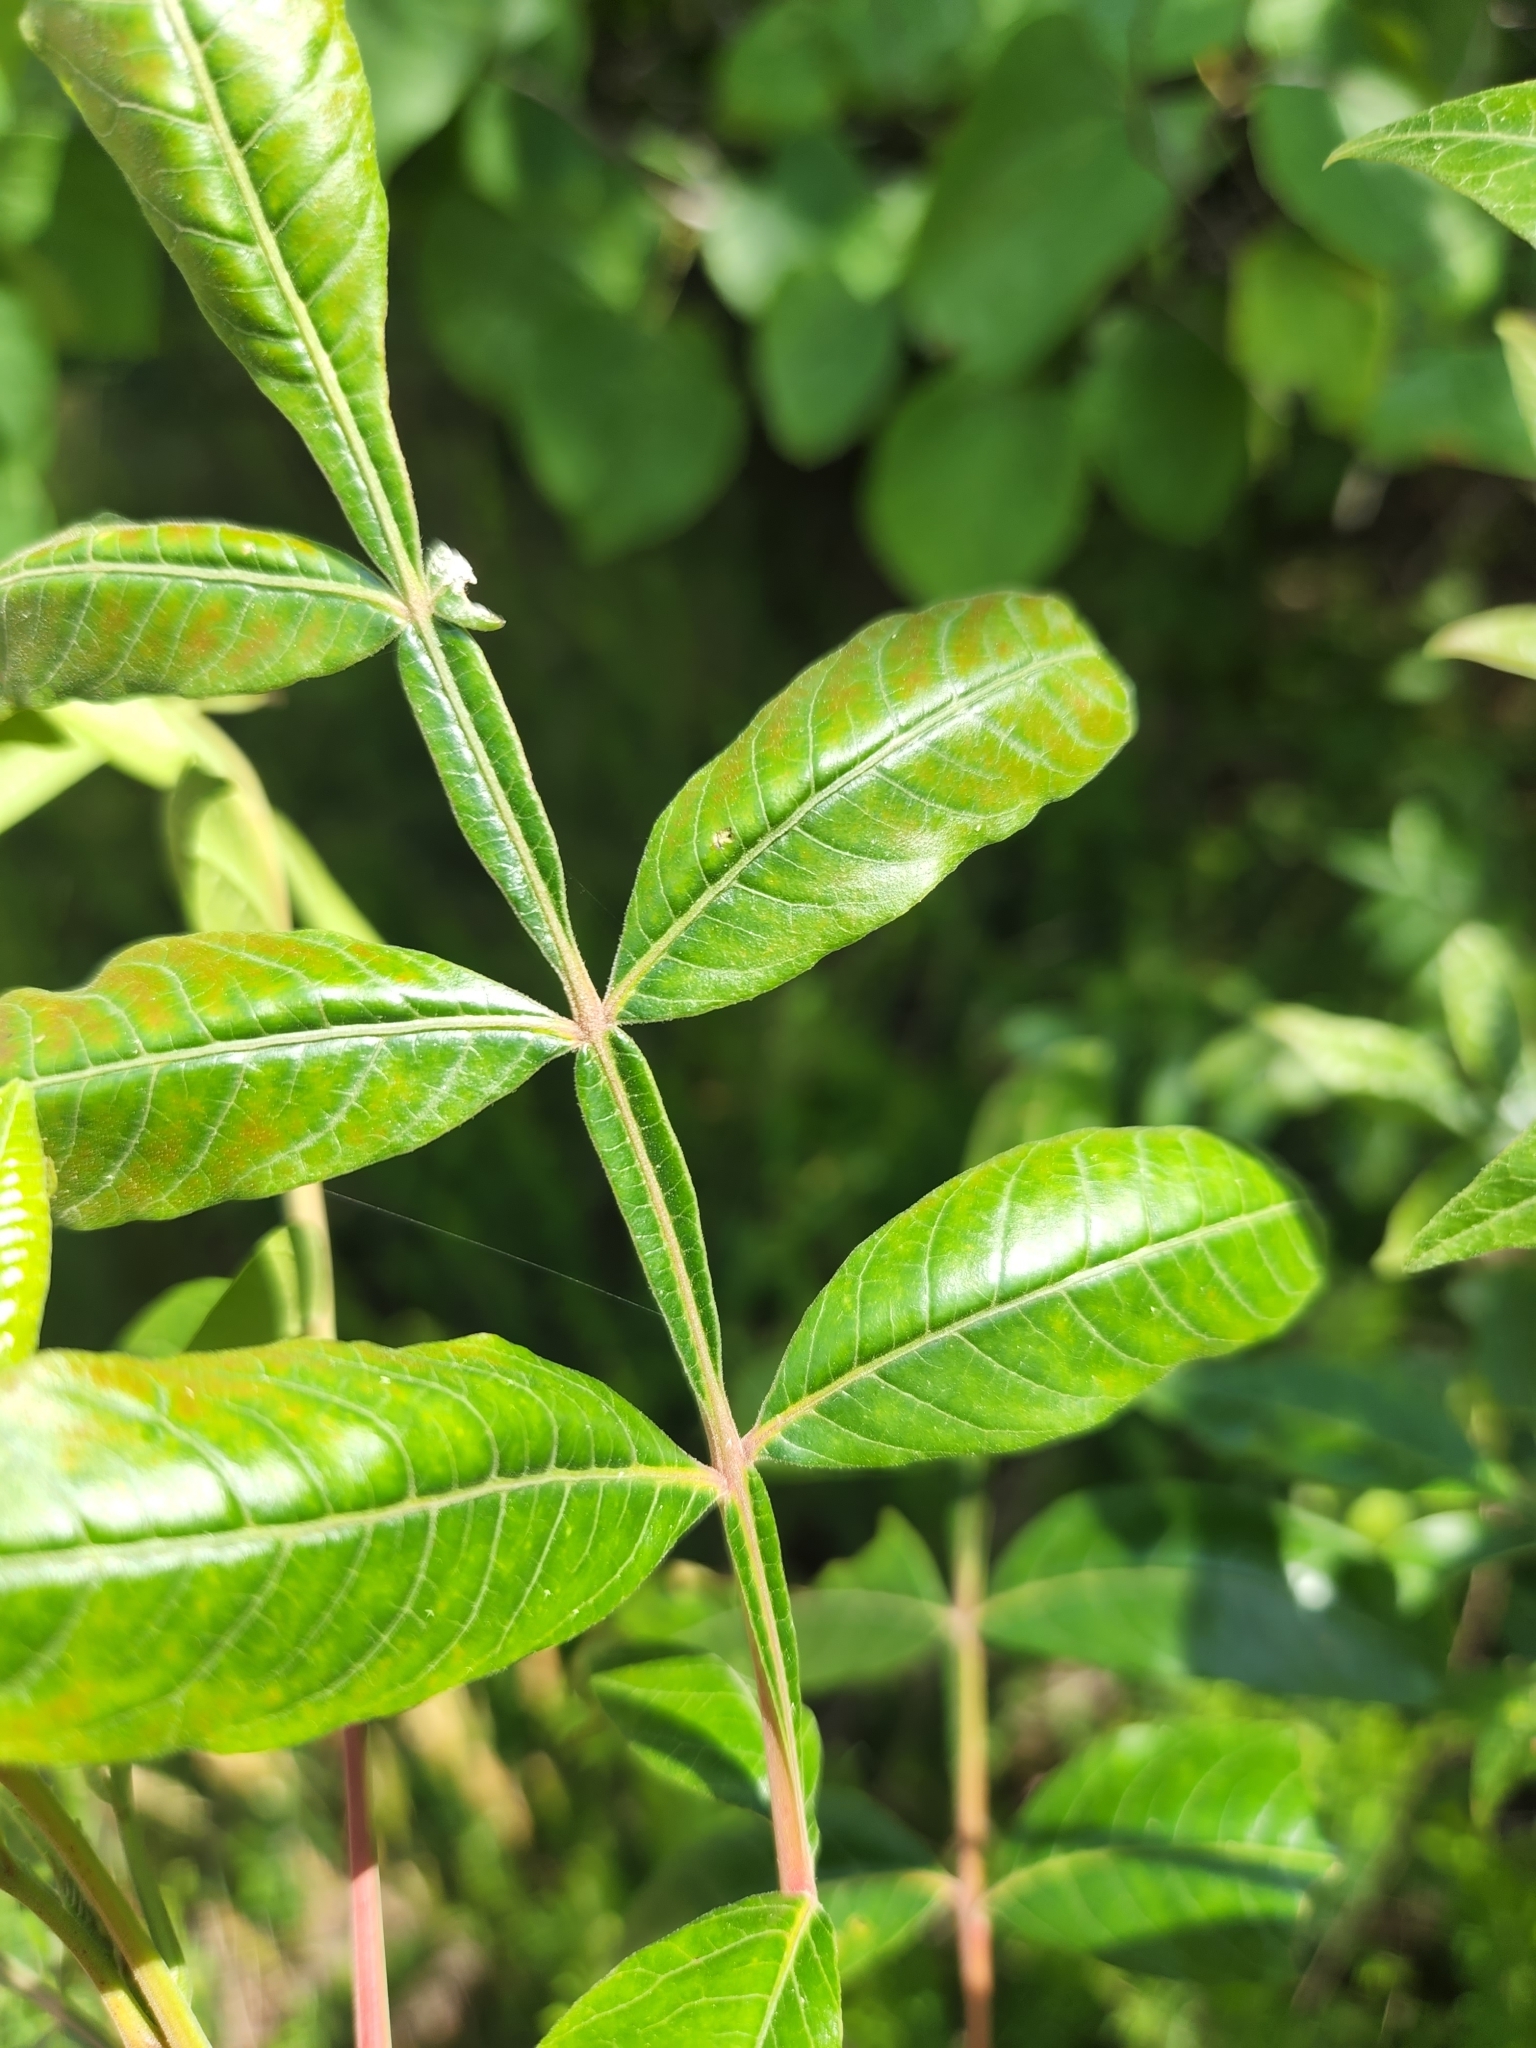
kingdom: Plantae
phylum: Tracheophyta
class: Magnoliopsida
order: Sapindales
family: Anacardiaceae
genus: Rhus
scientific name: Rhus copallina
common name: Shining sumac
